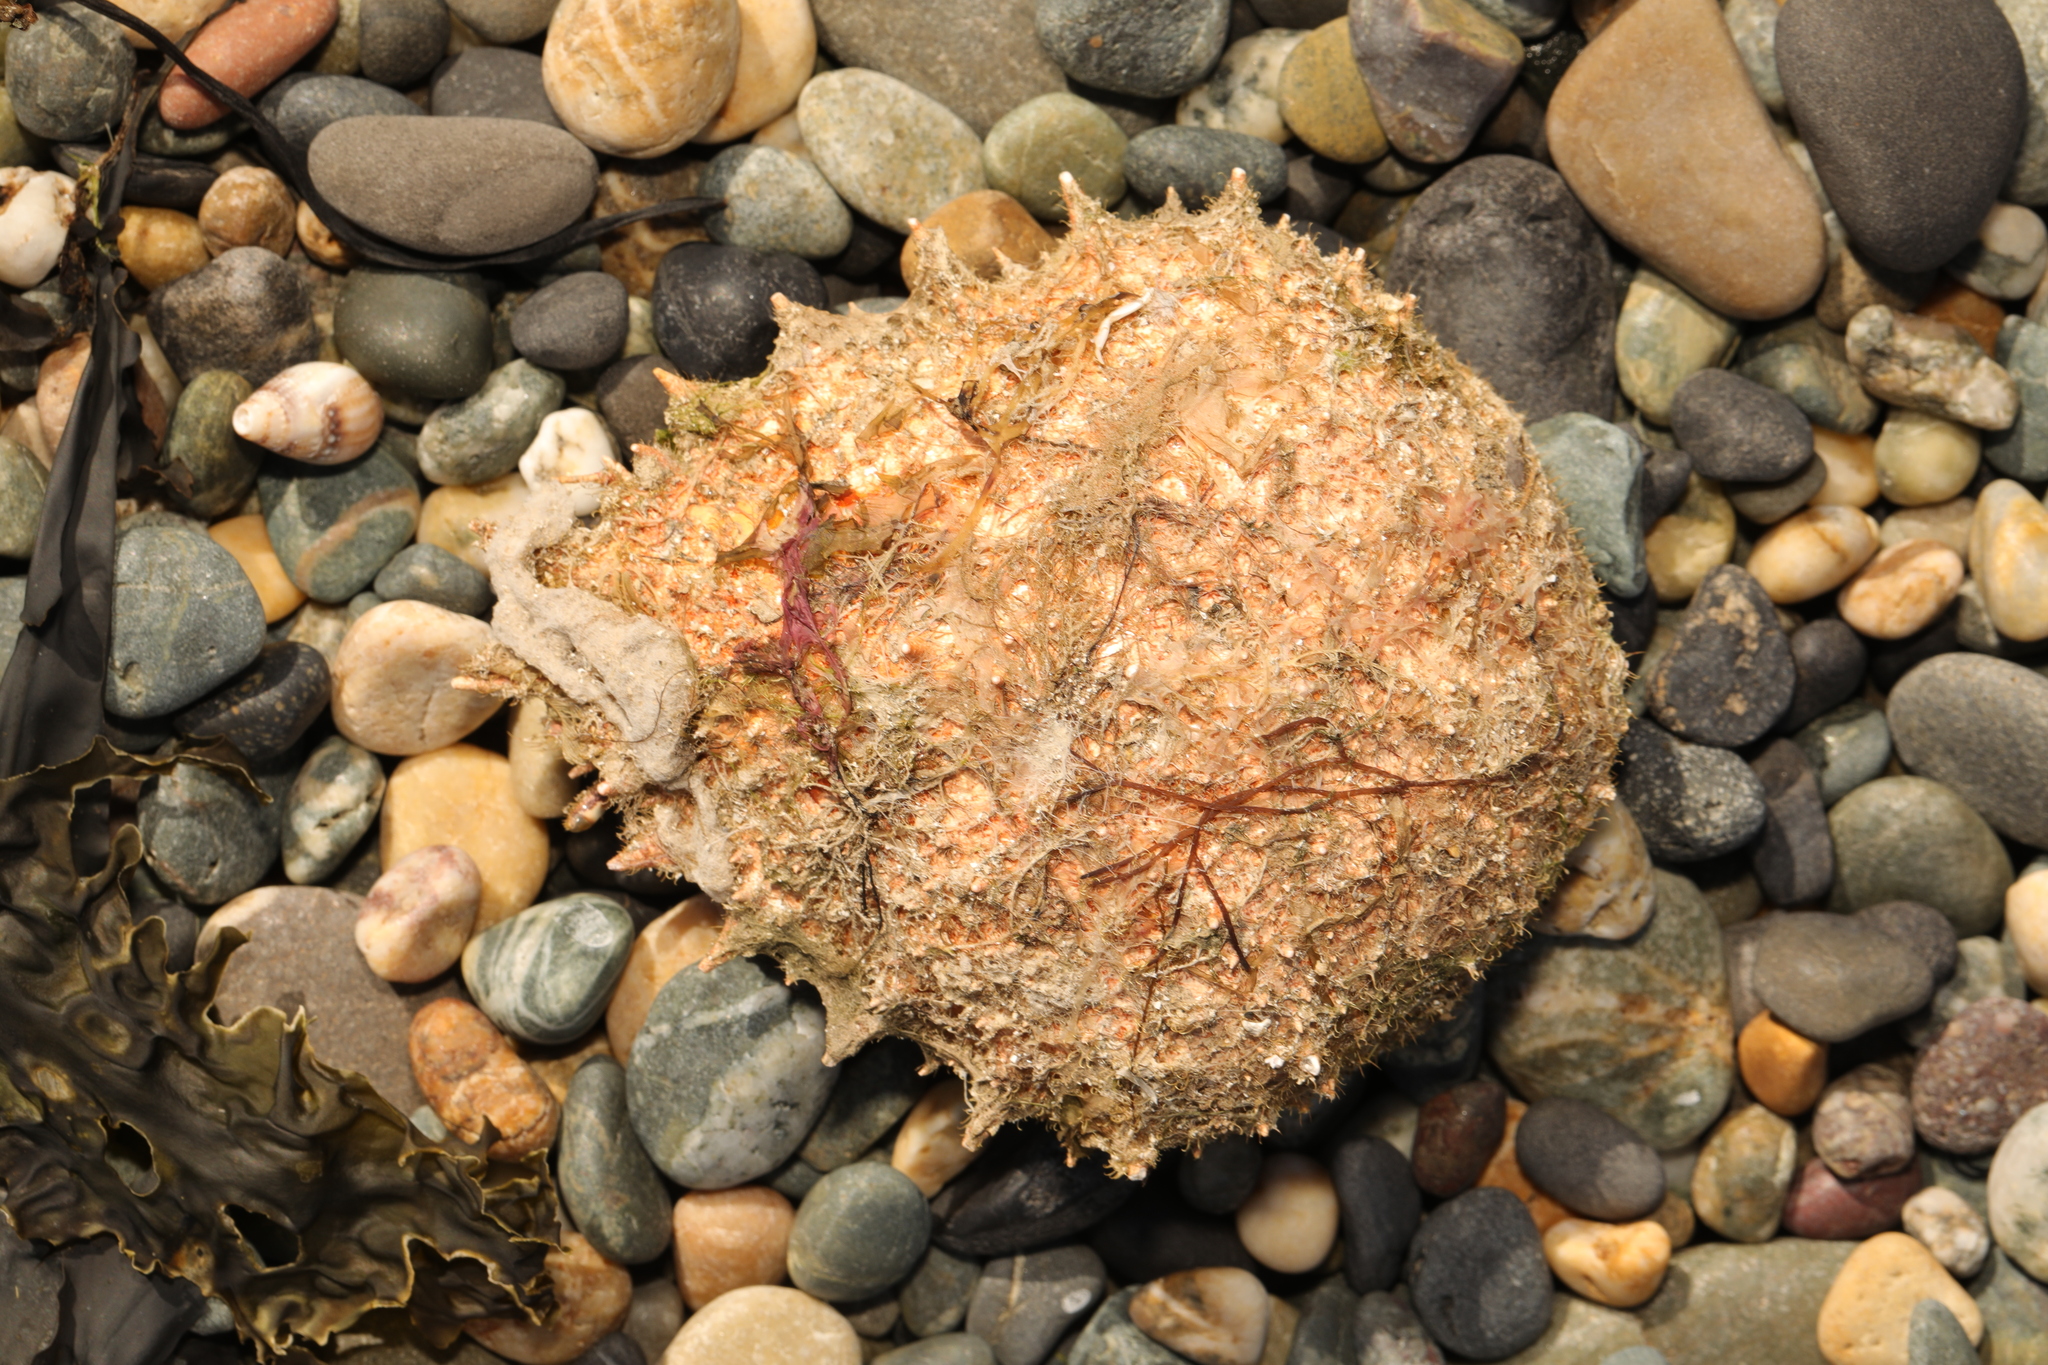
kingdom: Animalia
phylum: Arthropoda
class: Malacostraca
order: Decapoda
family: Majidae
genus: Maja
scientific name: Maja brachydactyla
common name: Common spider crab
